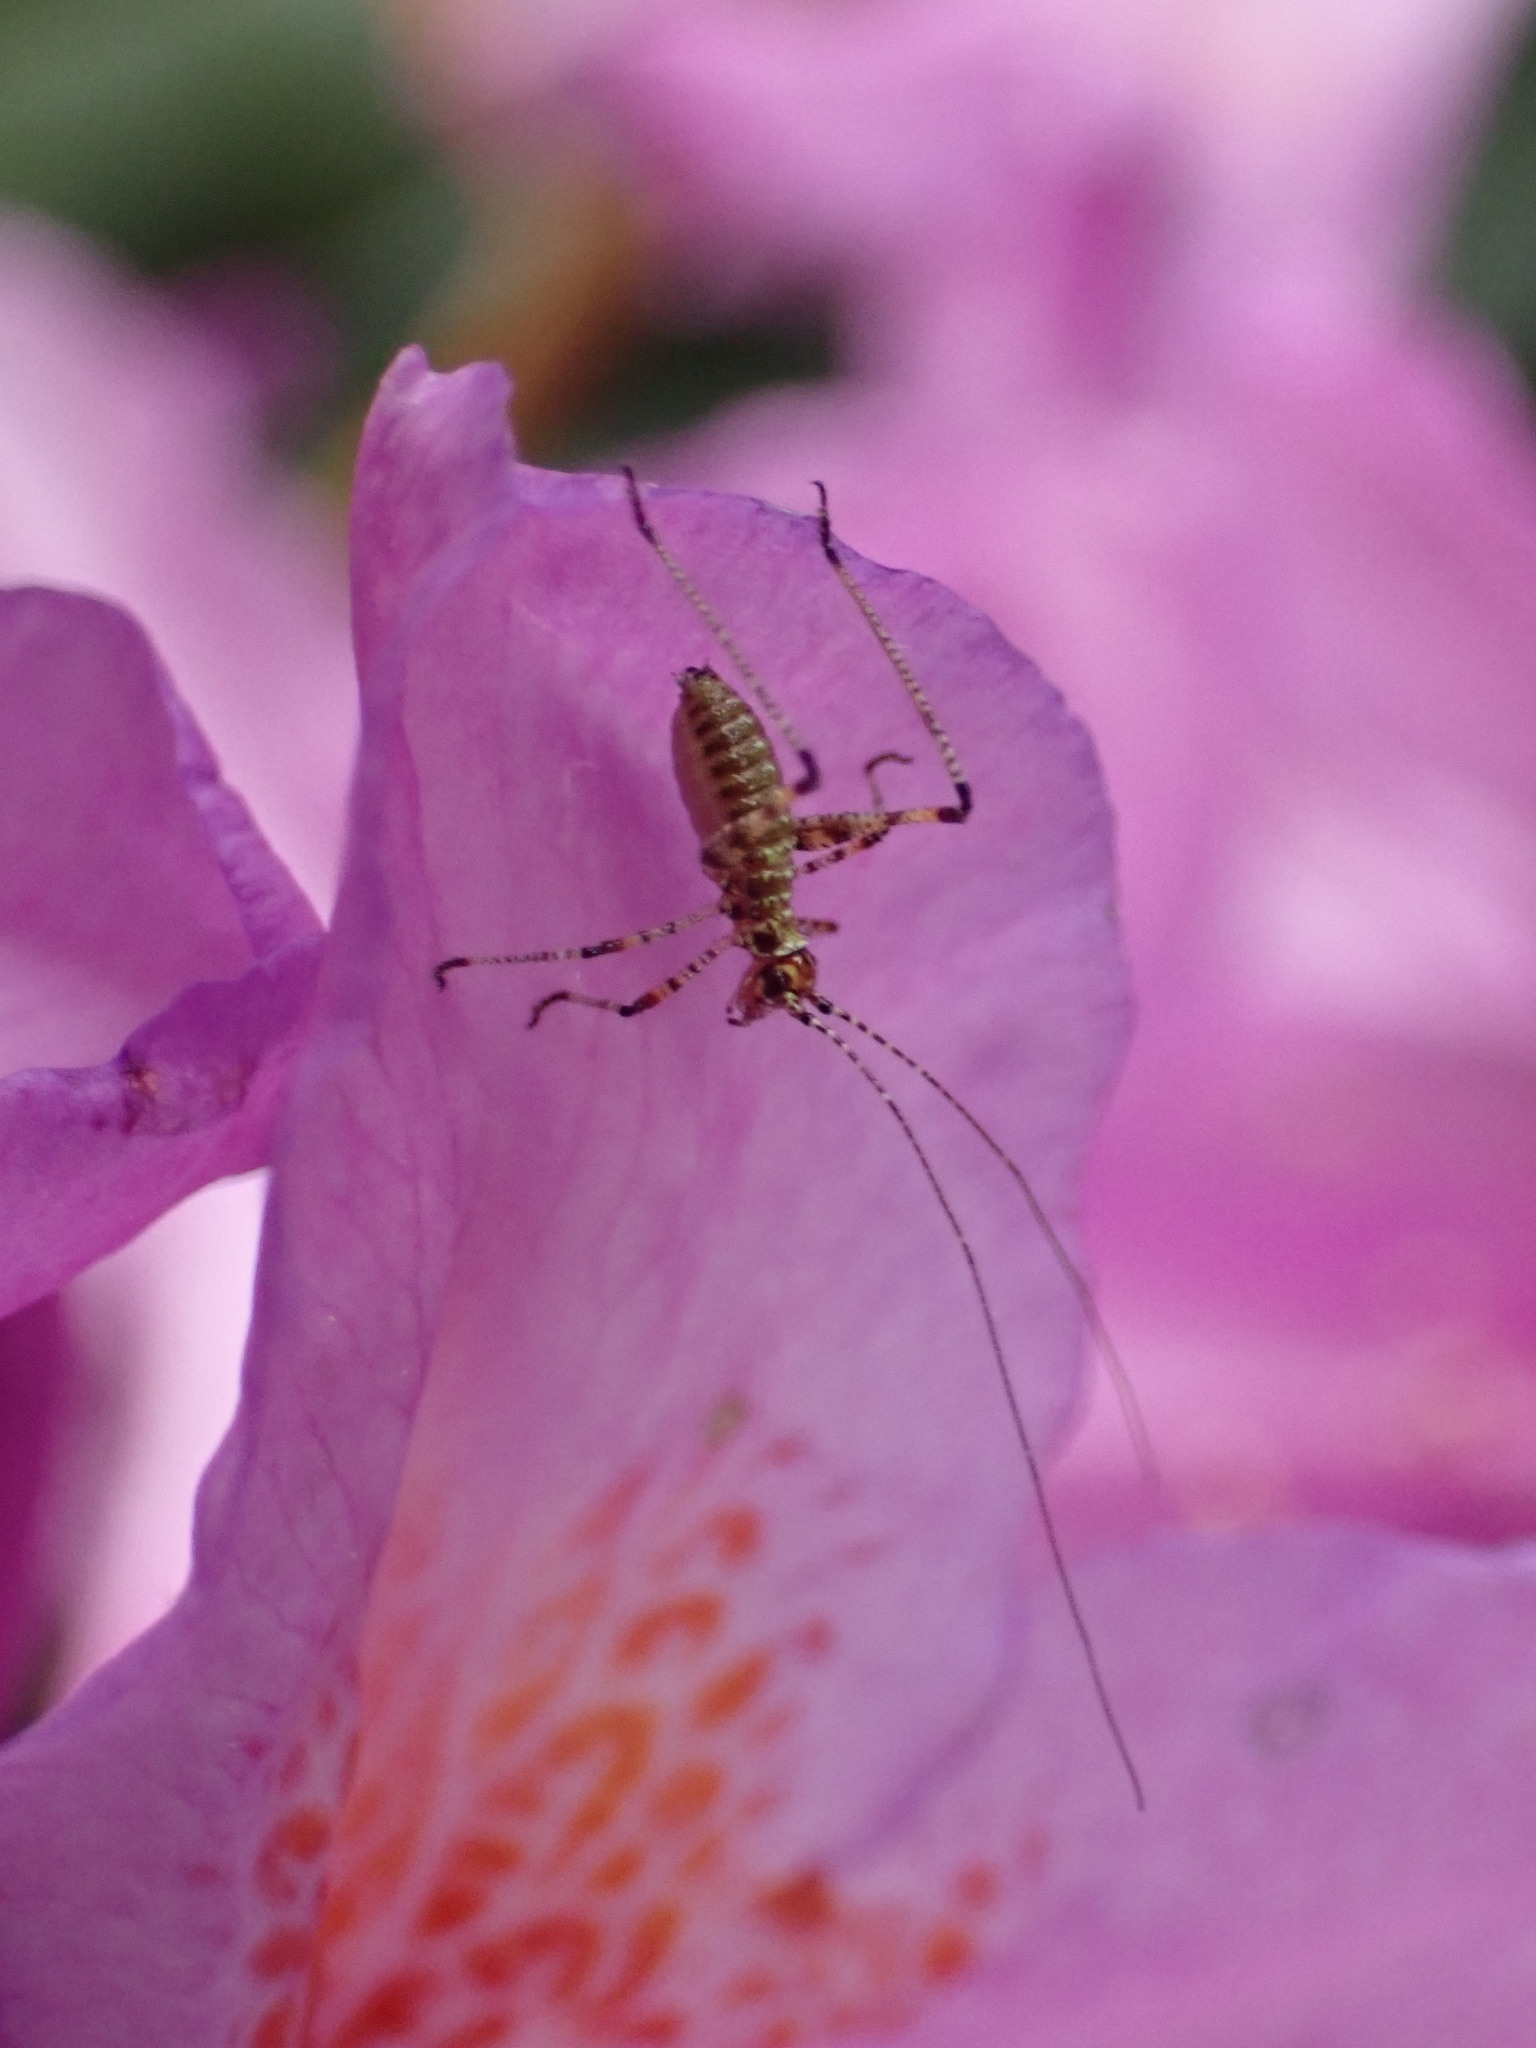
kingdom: Animalia
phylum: Arthropoda
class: Insecta
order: Orthoptera
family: Tettigoniidae
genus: Phaneroptera
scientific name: Phaneroptera nana
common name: Southern sickle bush-cricket
